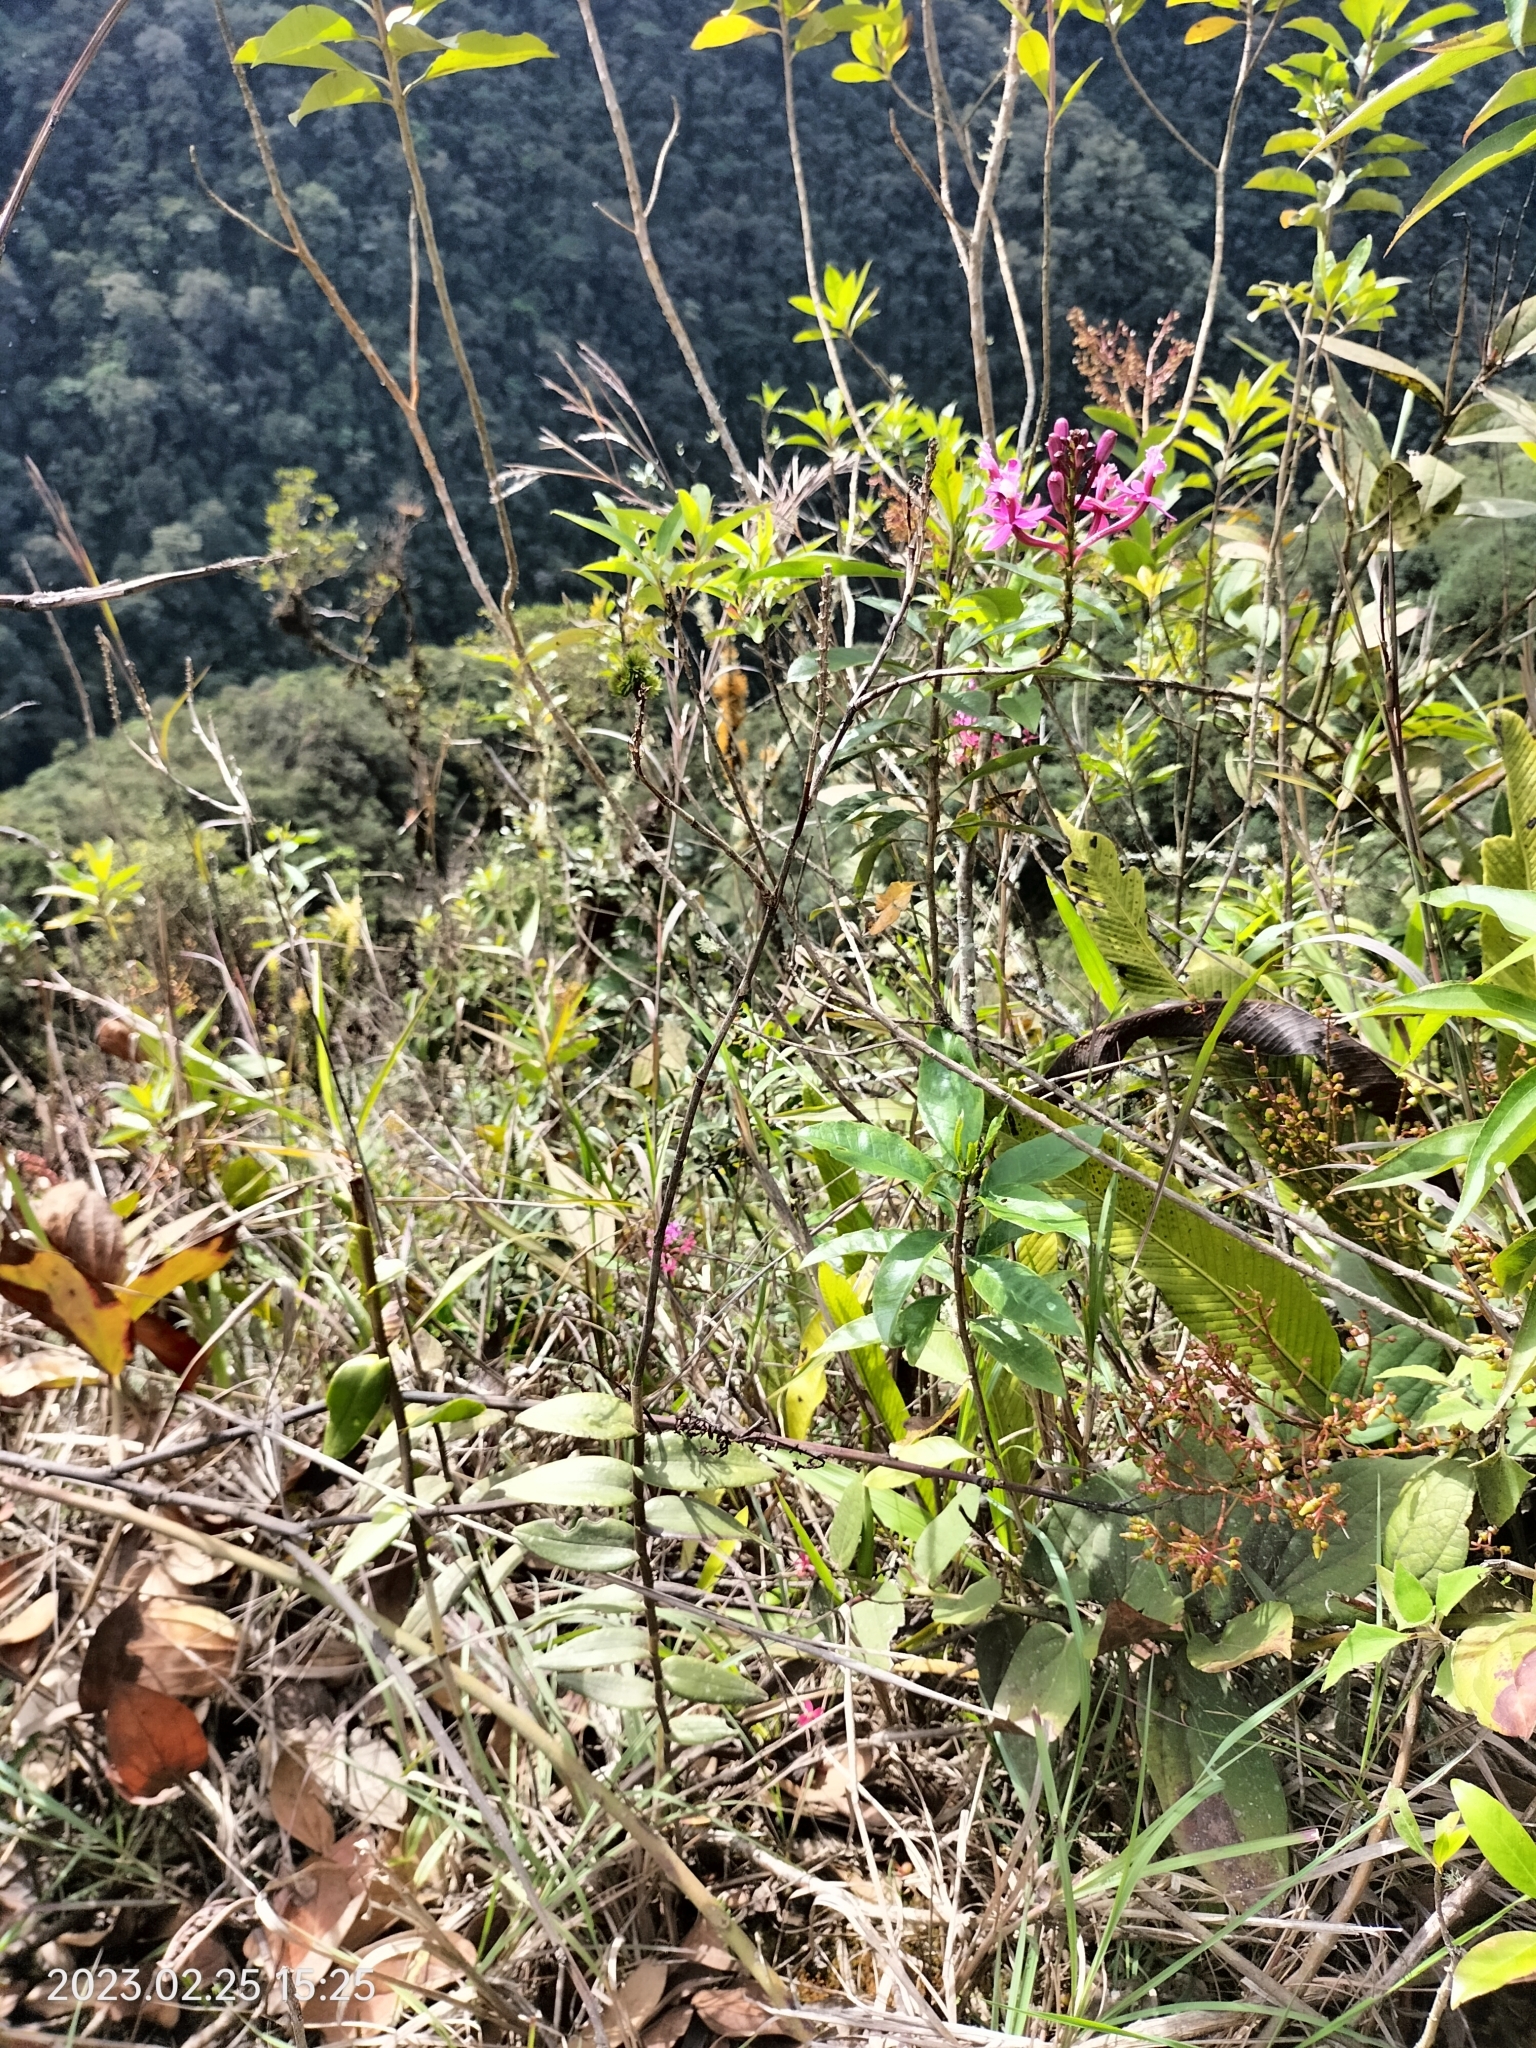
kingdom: Plantae
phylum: Tracheophyta
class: Liliopsida
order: Asparagales
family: Orchidaceae
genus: Epidendrum
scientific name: Epidendrum blepharistes
